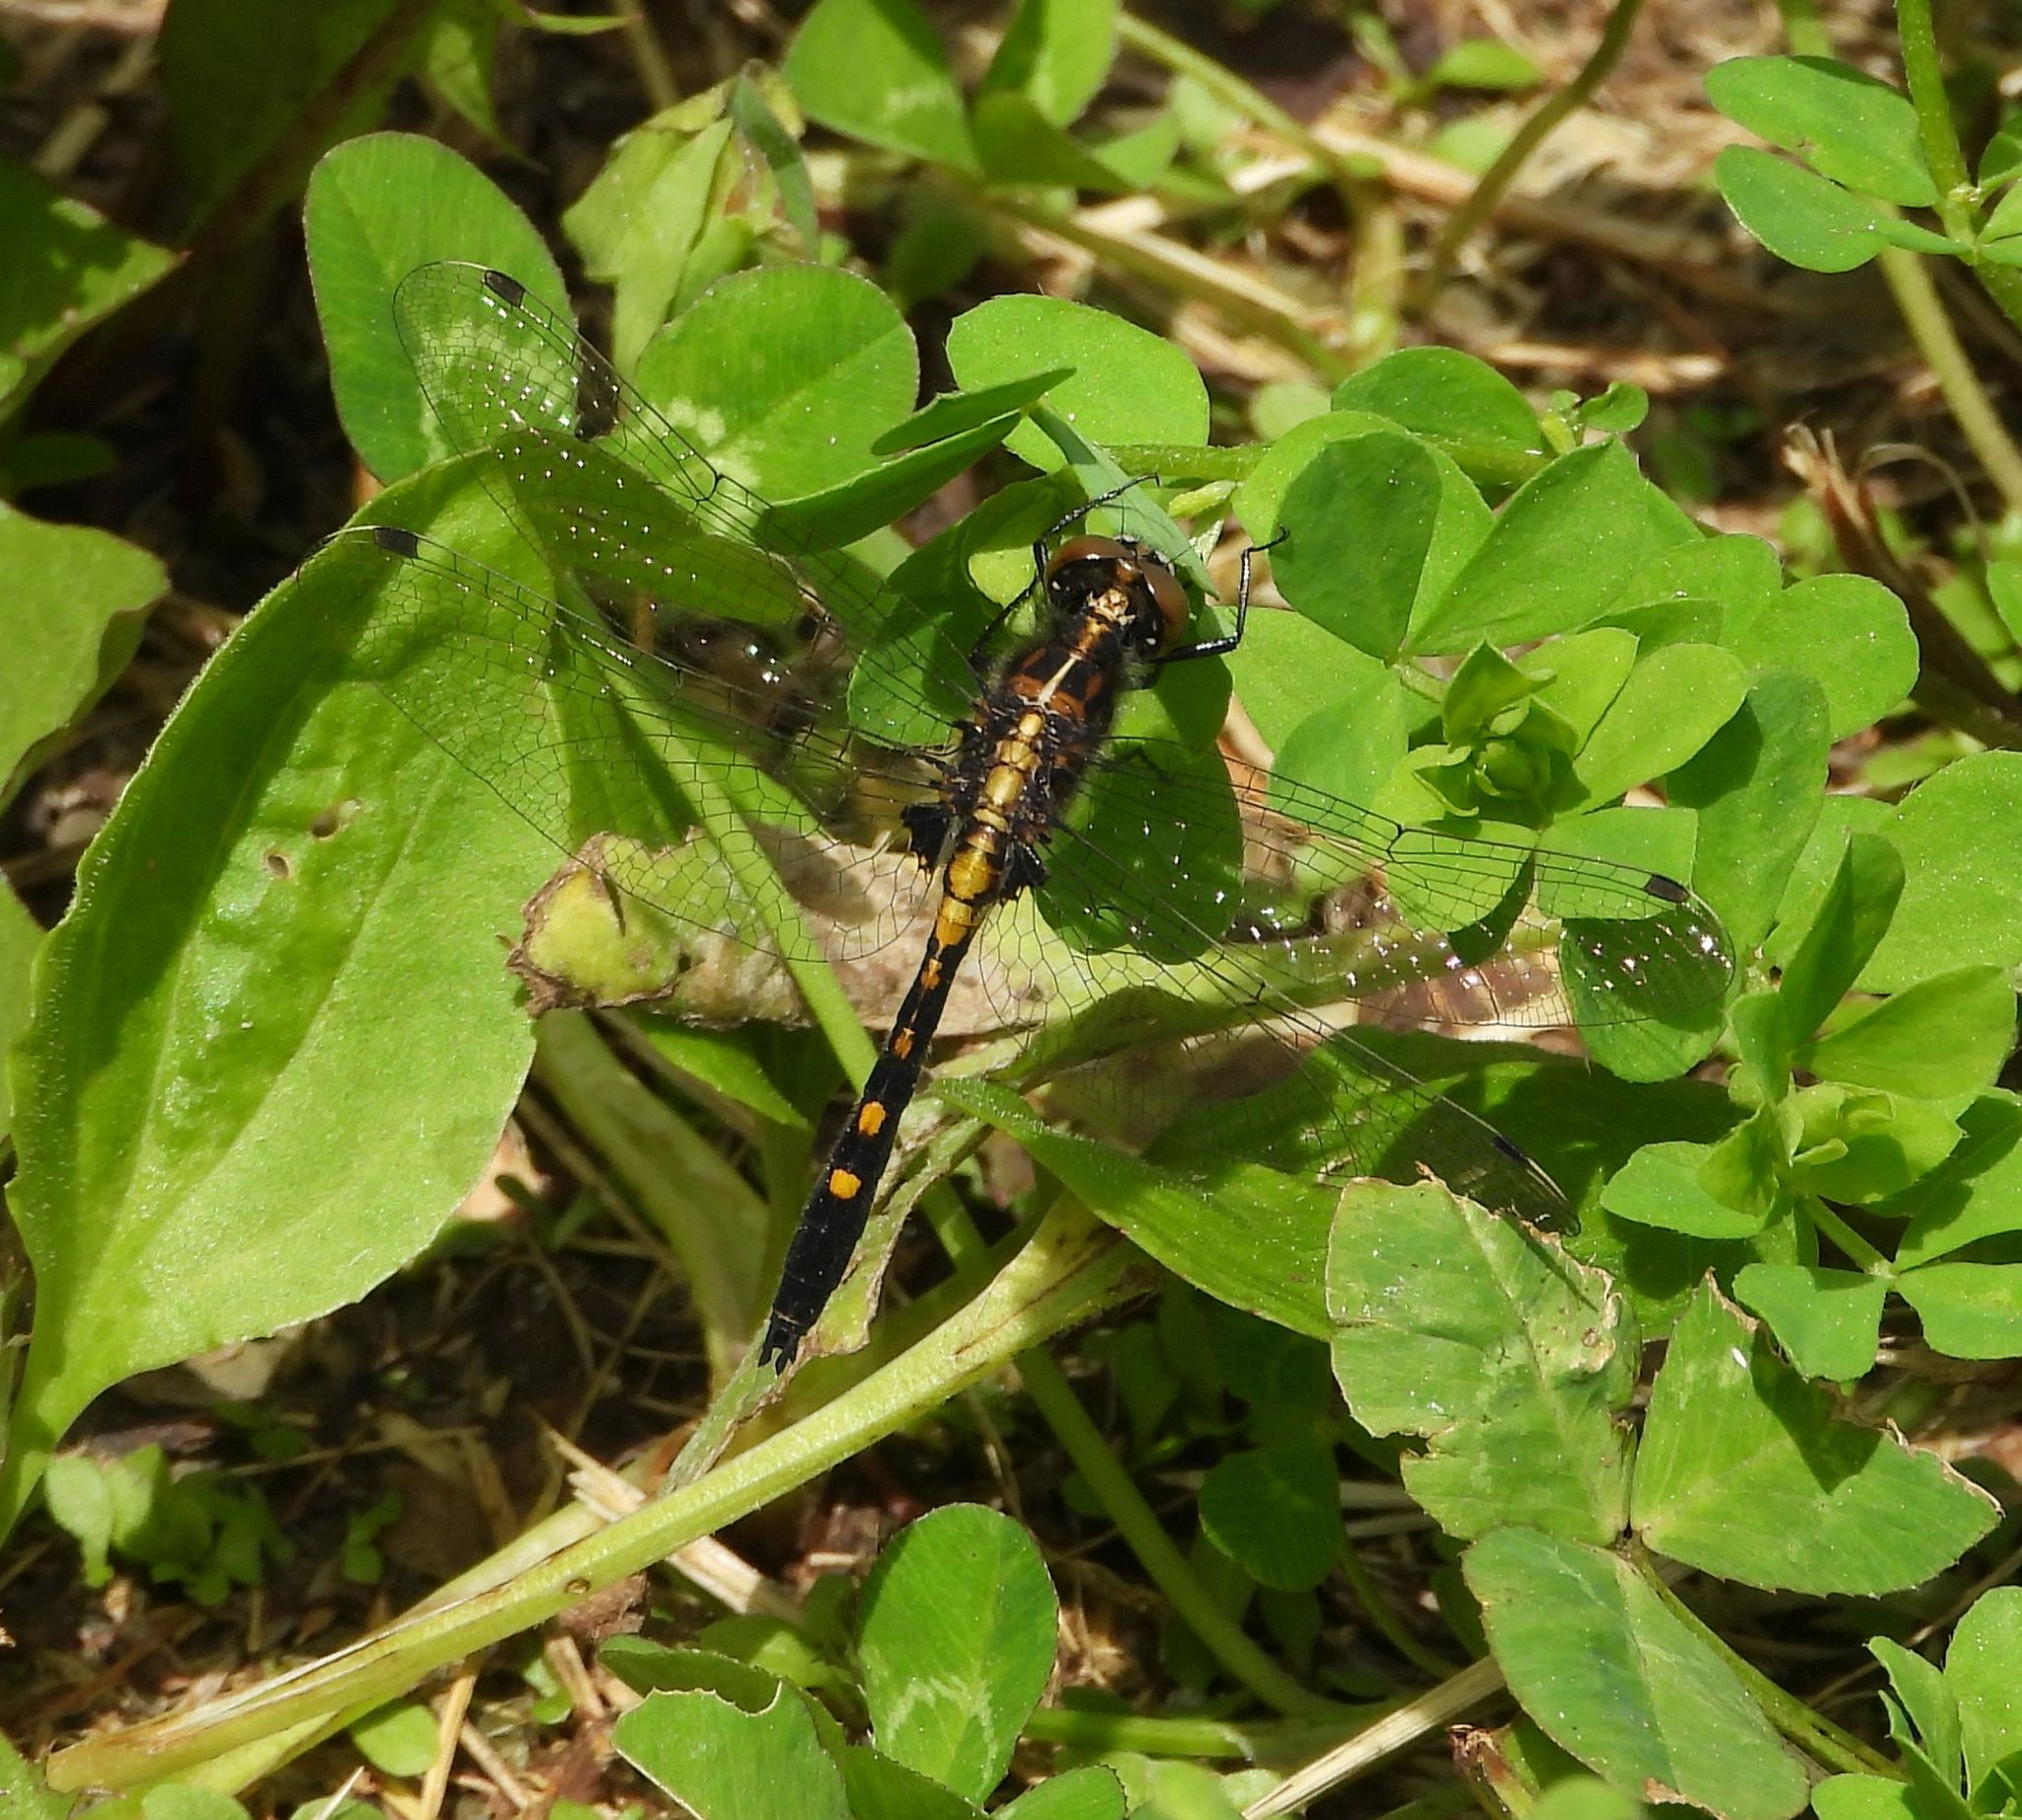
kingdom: Animalia
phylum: Arthropoda
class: Insecta
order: Odonata
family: Libellulidae
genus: Leucorrhinia
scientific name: Leucorrhinia intacta
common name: Dot-tailed whiteface
